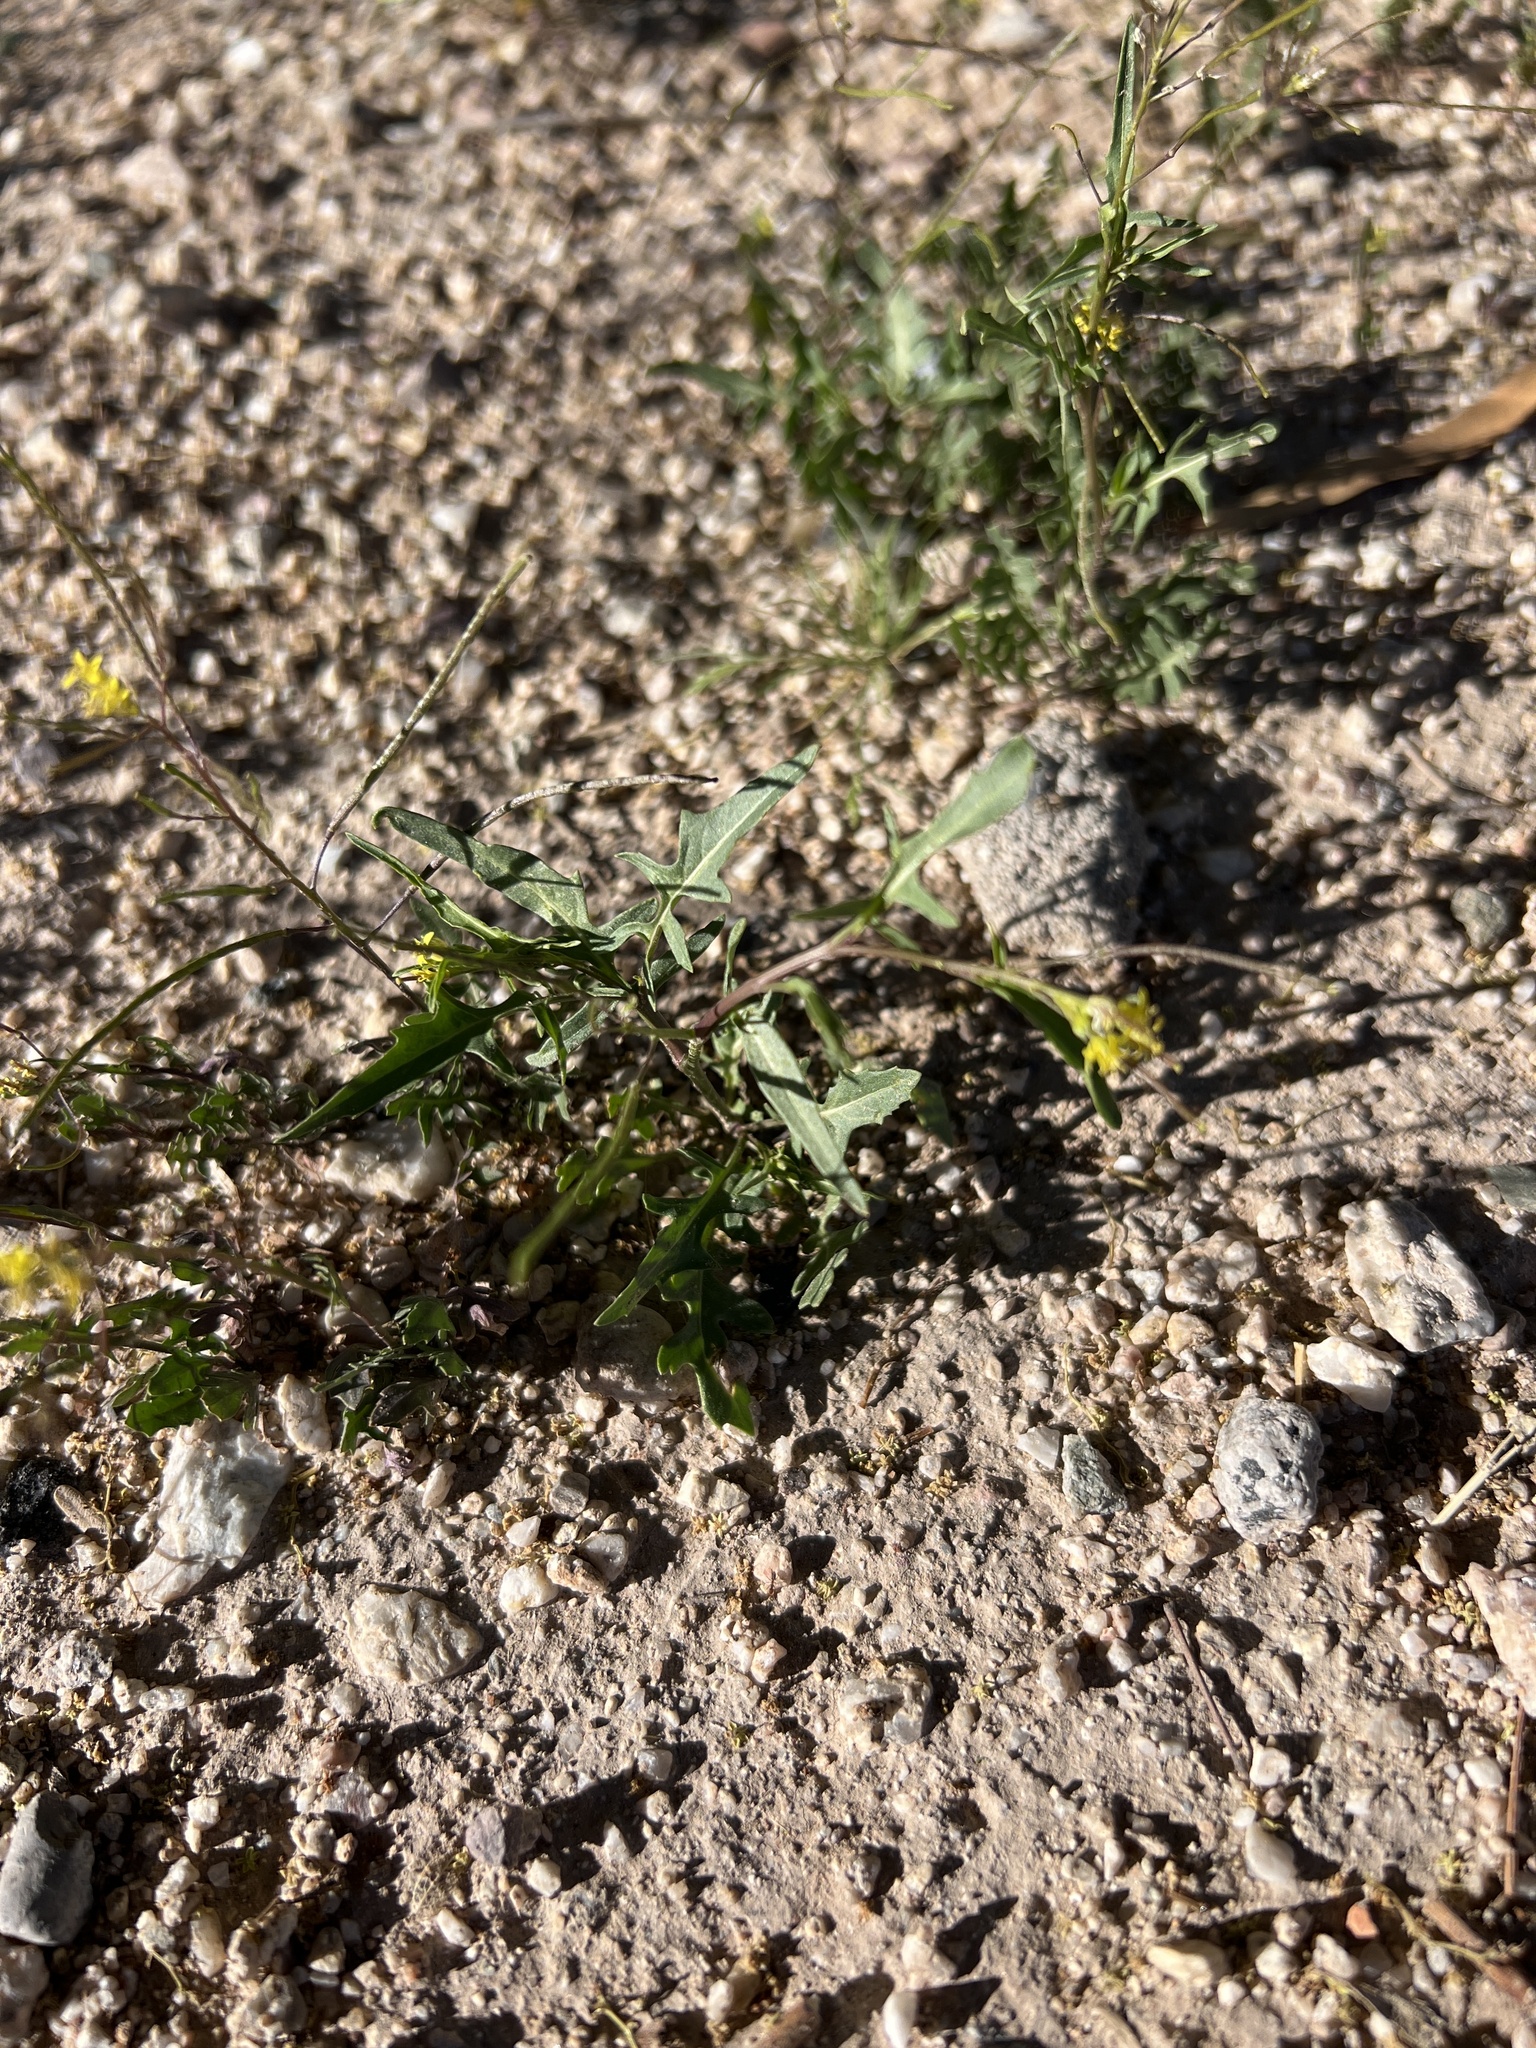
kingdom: Plantae
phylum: Tracheophyta
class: Magnoliopsida
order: Brassicales
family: Brassicaceae
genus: Sisymbrium
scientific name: Sisymbrium irio
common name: London rocket
